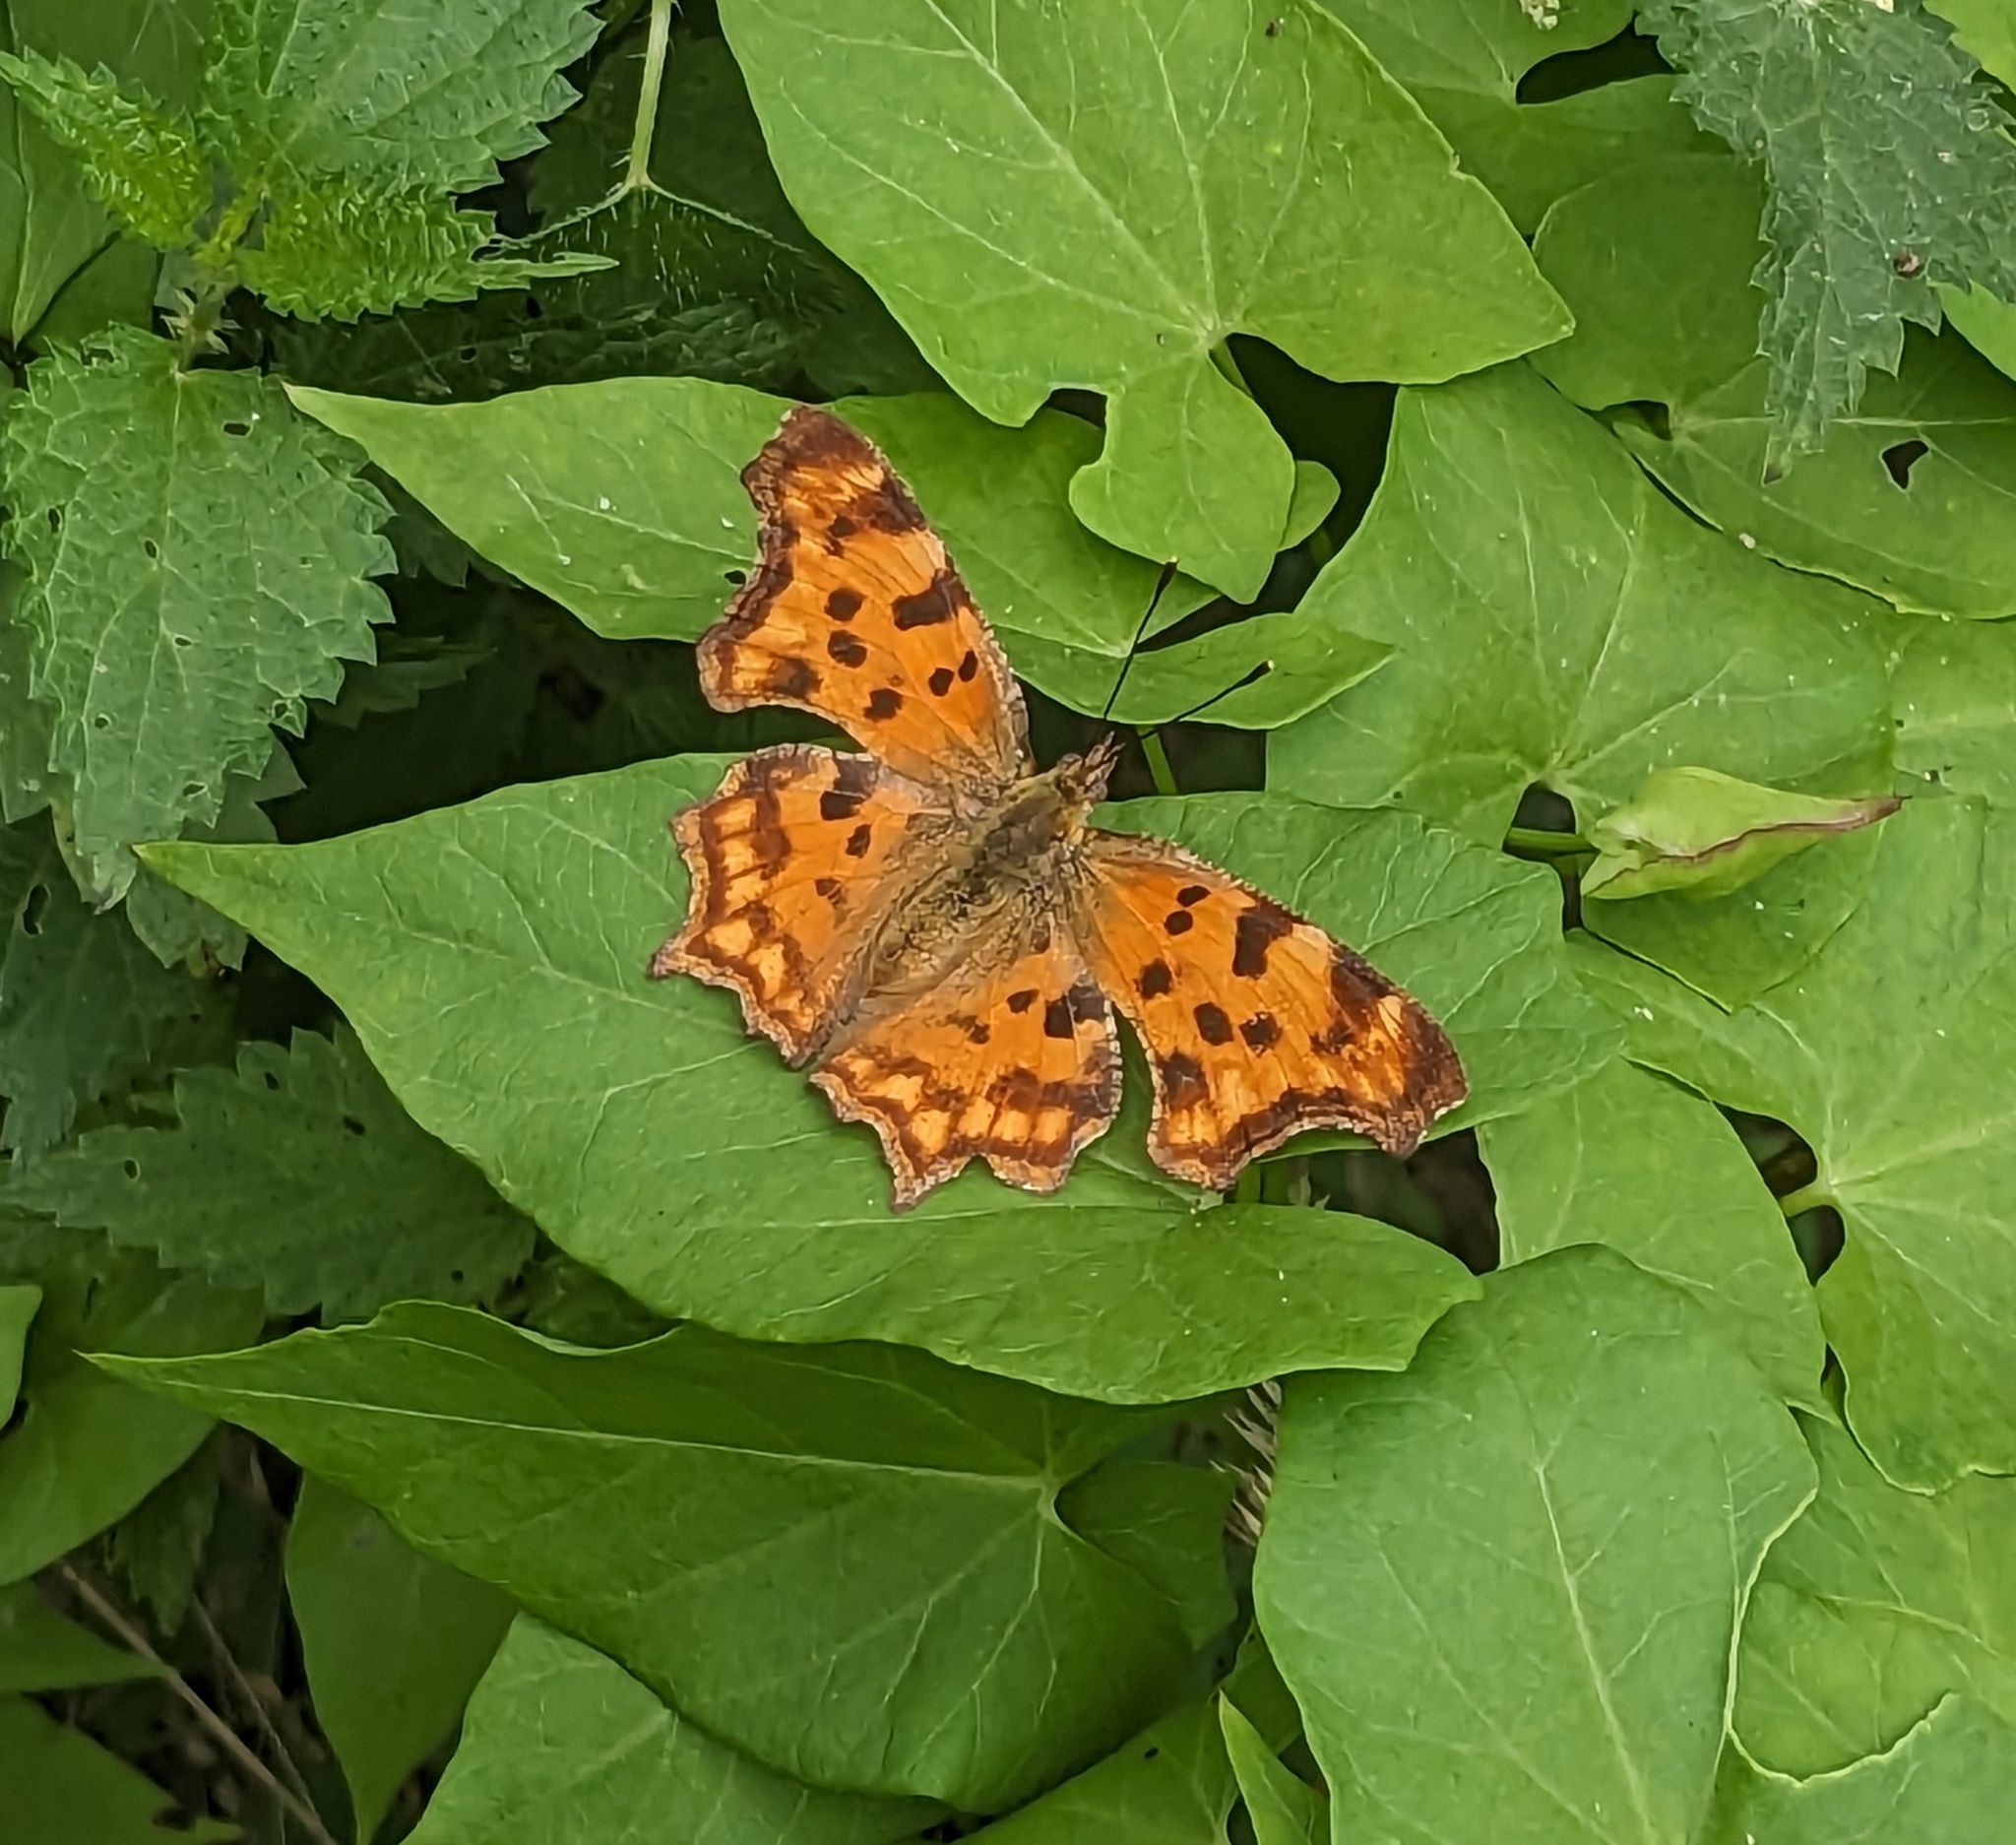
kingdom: Animalia
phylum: Arthropoda
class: Insecta
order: Lepidoptera
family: Nymphalidae
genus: Polygonia
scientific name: Polygonia c-album
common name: Comma
